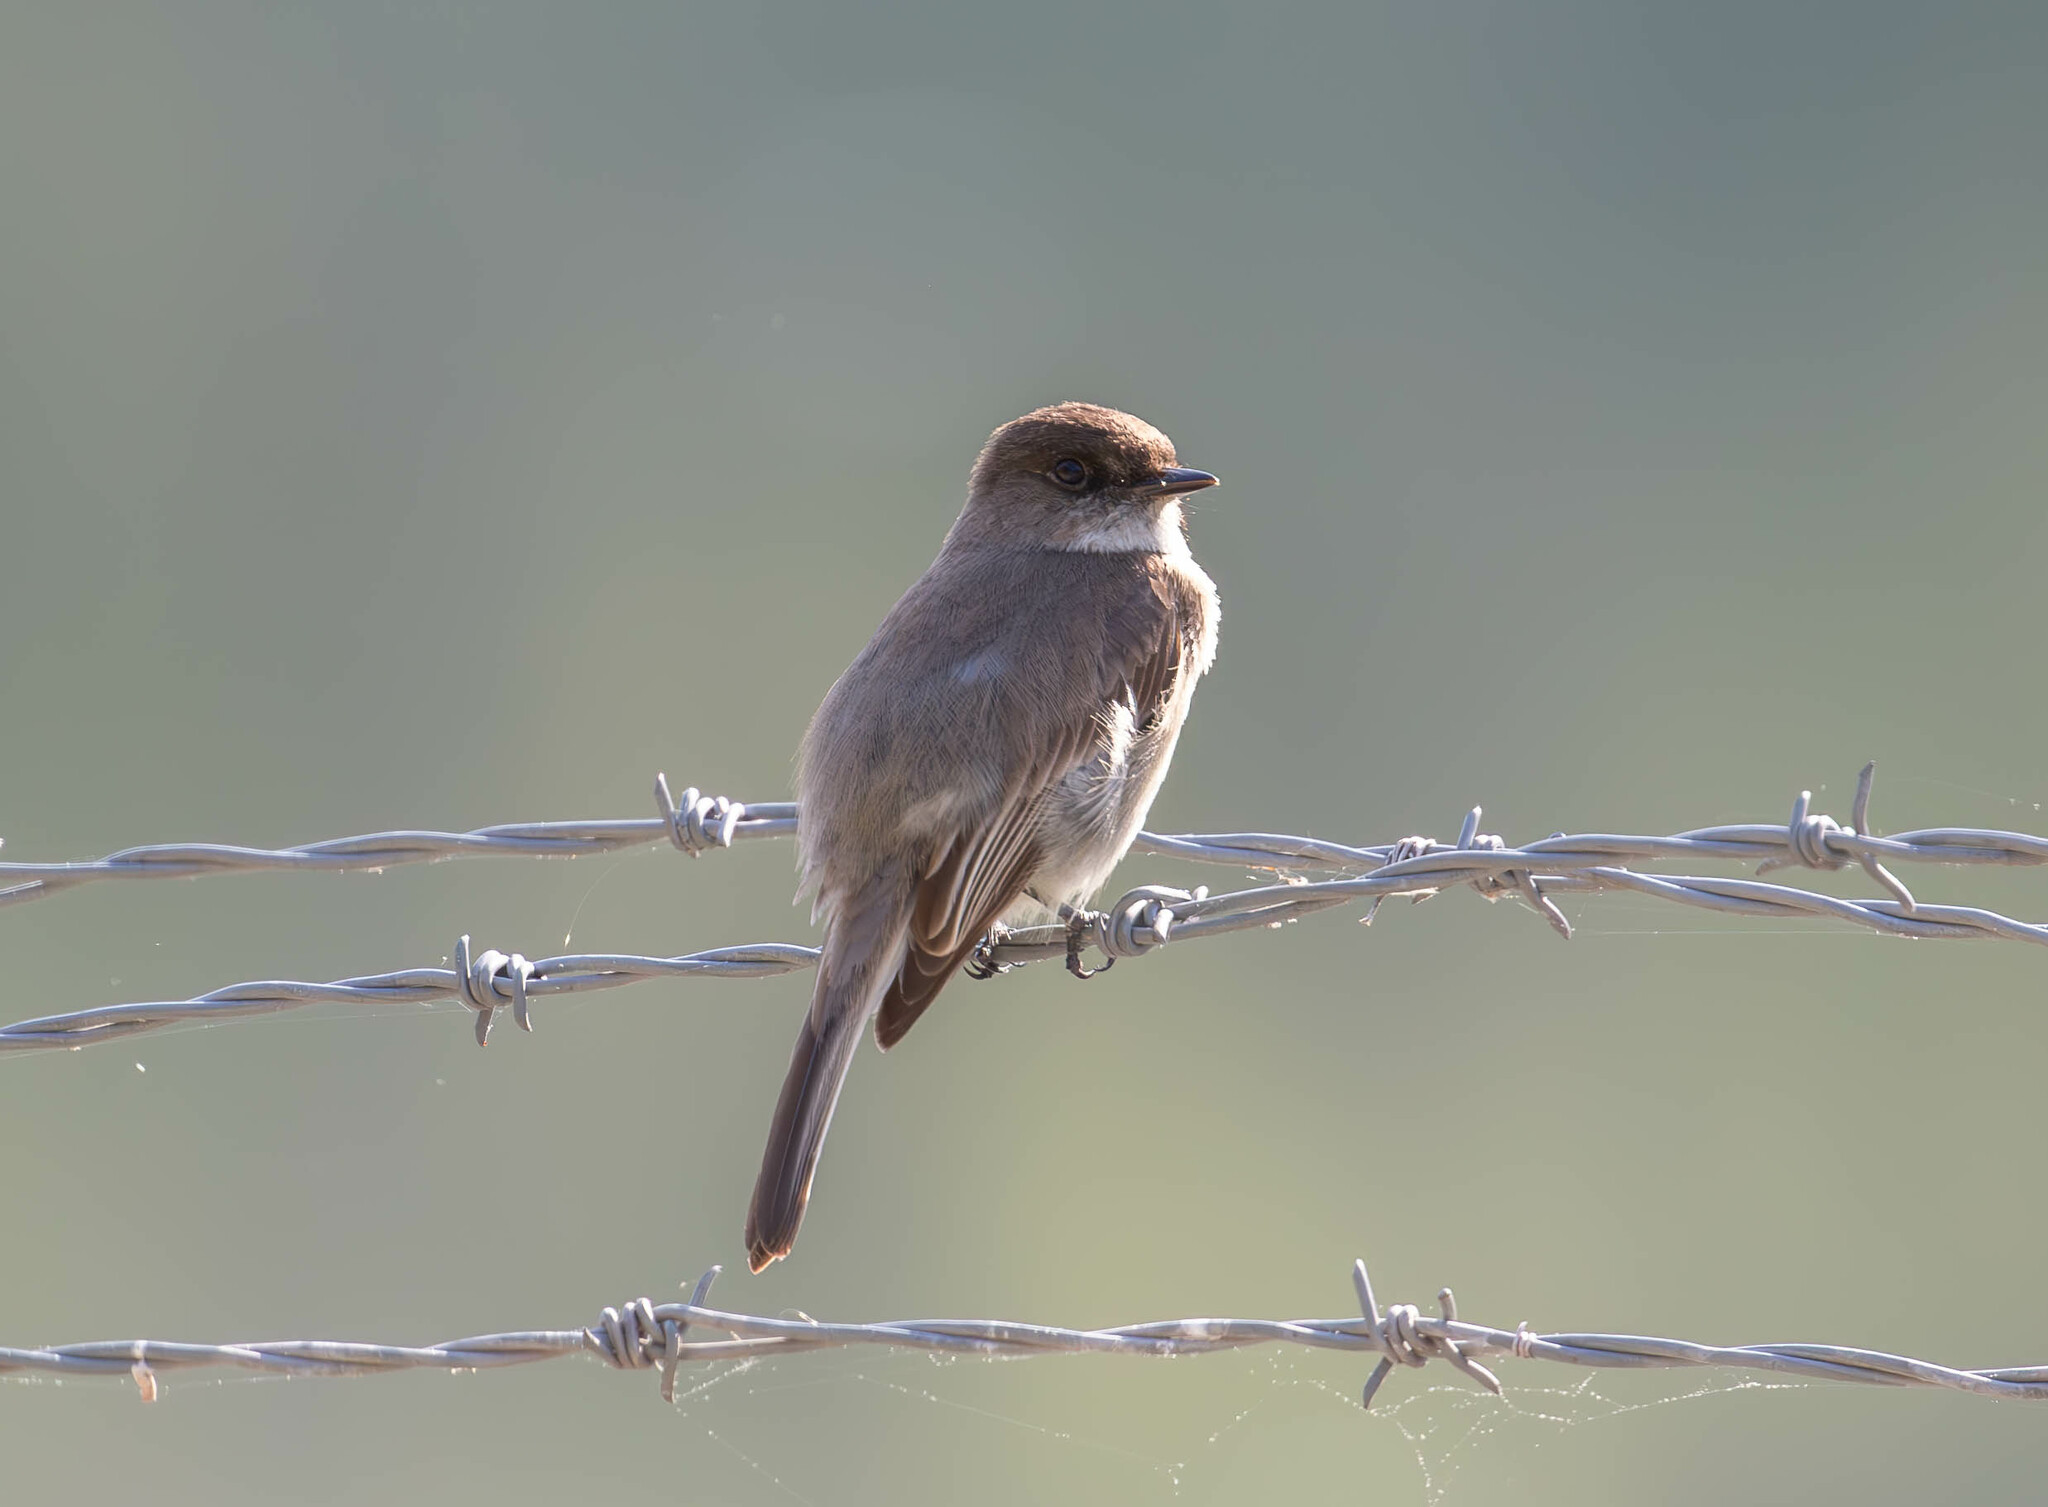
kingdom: Animalia
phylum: Chordata
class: Aves
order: Passeriformes
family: Tyrannidae
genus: Sayornis
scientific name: Sayornis phoebe
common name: Eastern phoebe
